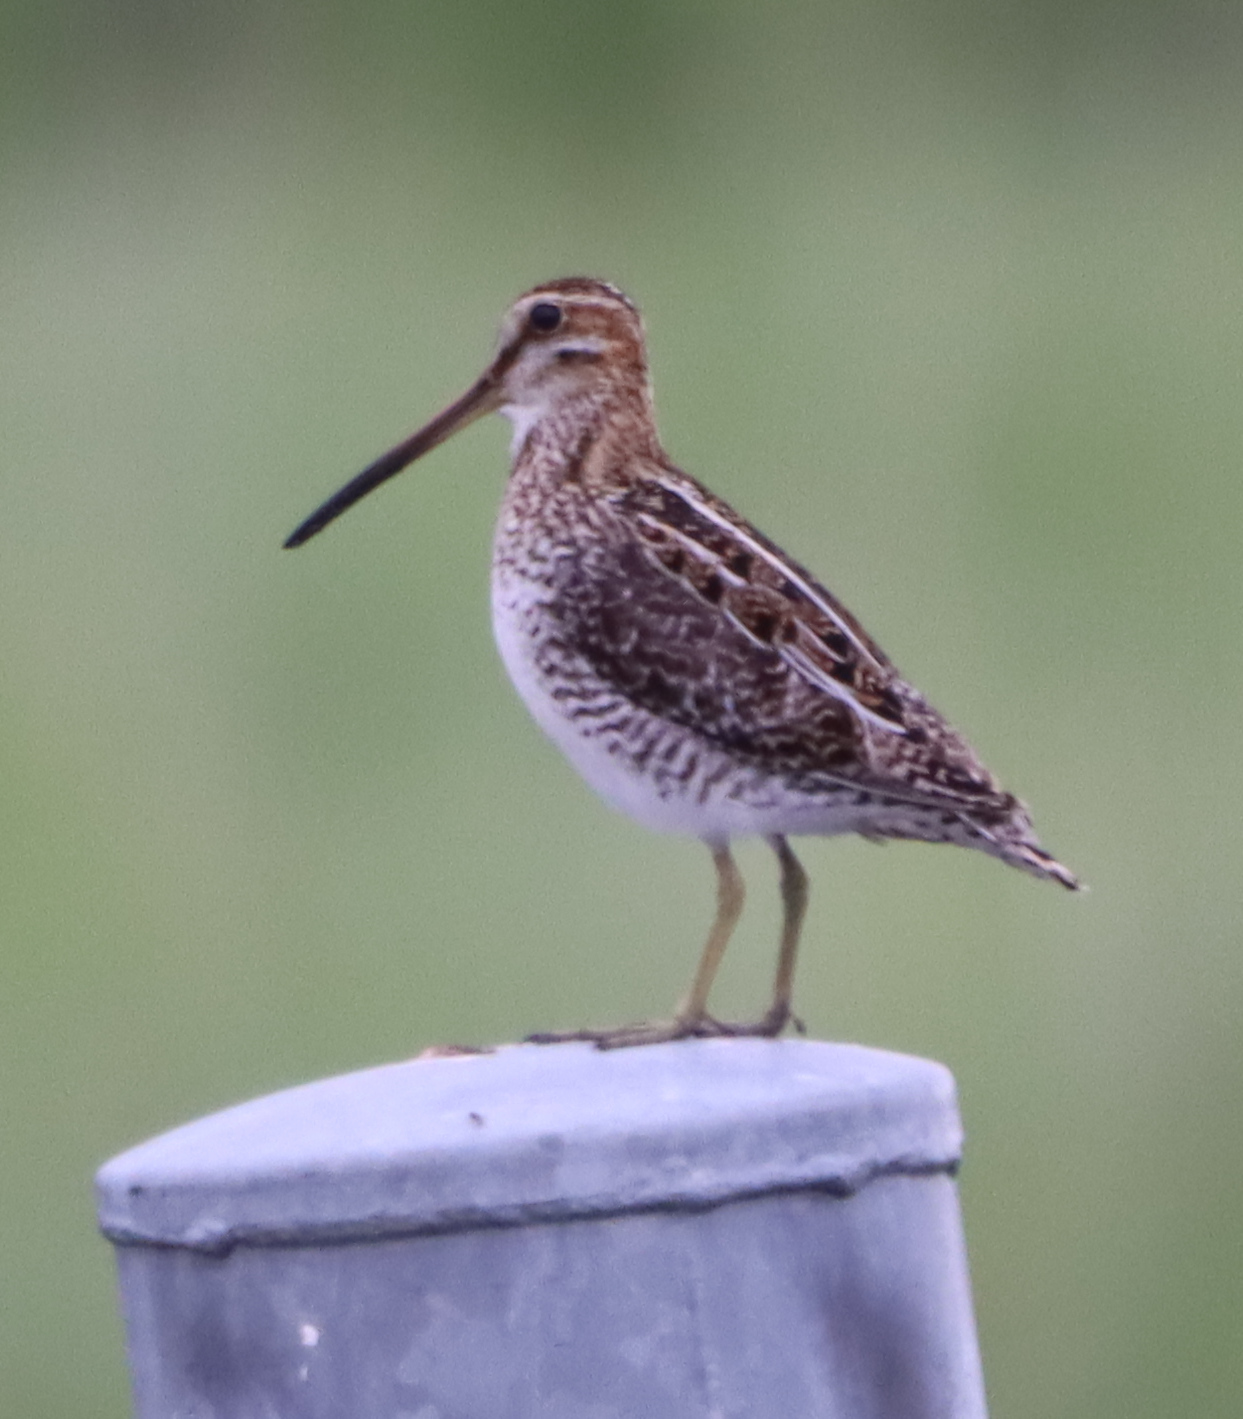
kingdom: Animalia
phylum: Chordata
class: Aves
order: Charadriiformes
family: Scolopacidae
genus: Gallinago
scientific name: Gallinago delicata
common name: Wilson's snipe
